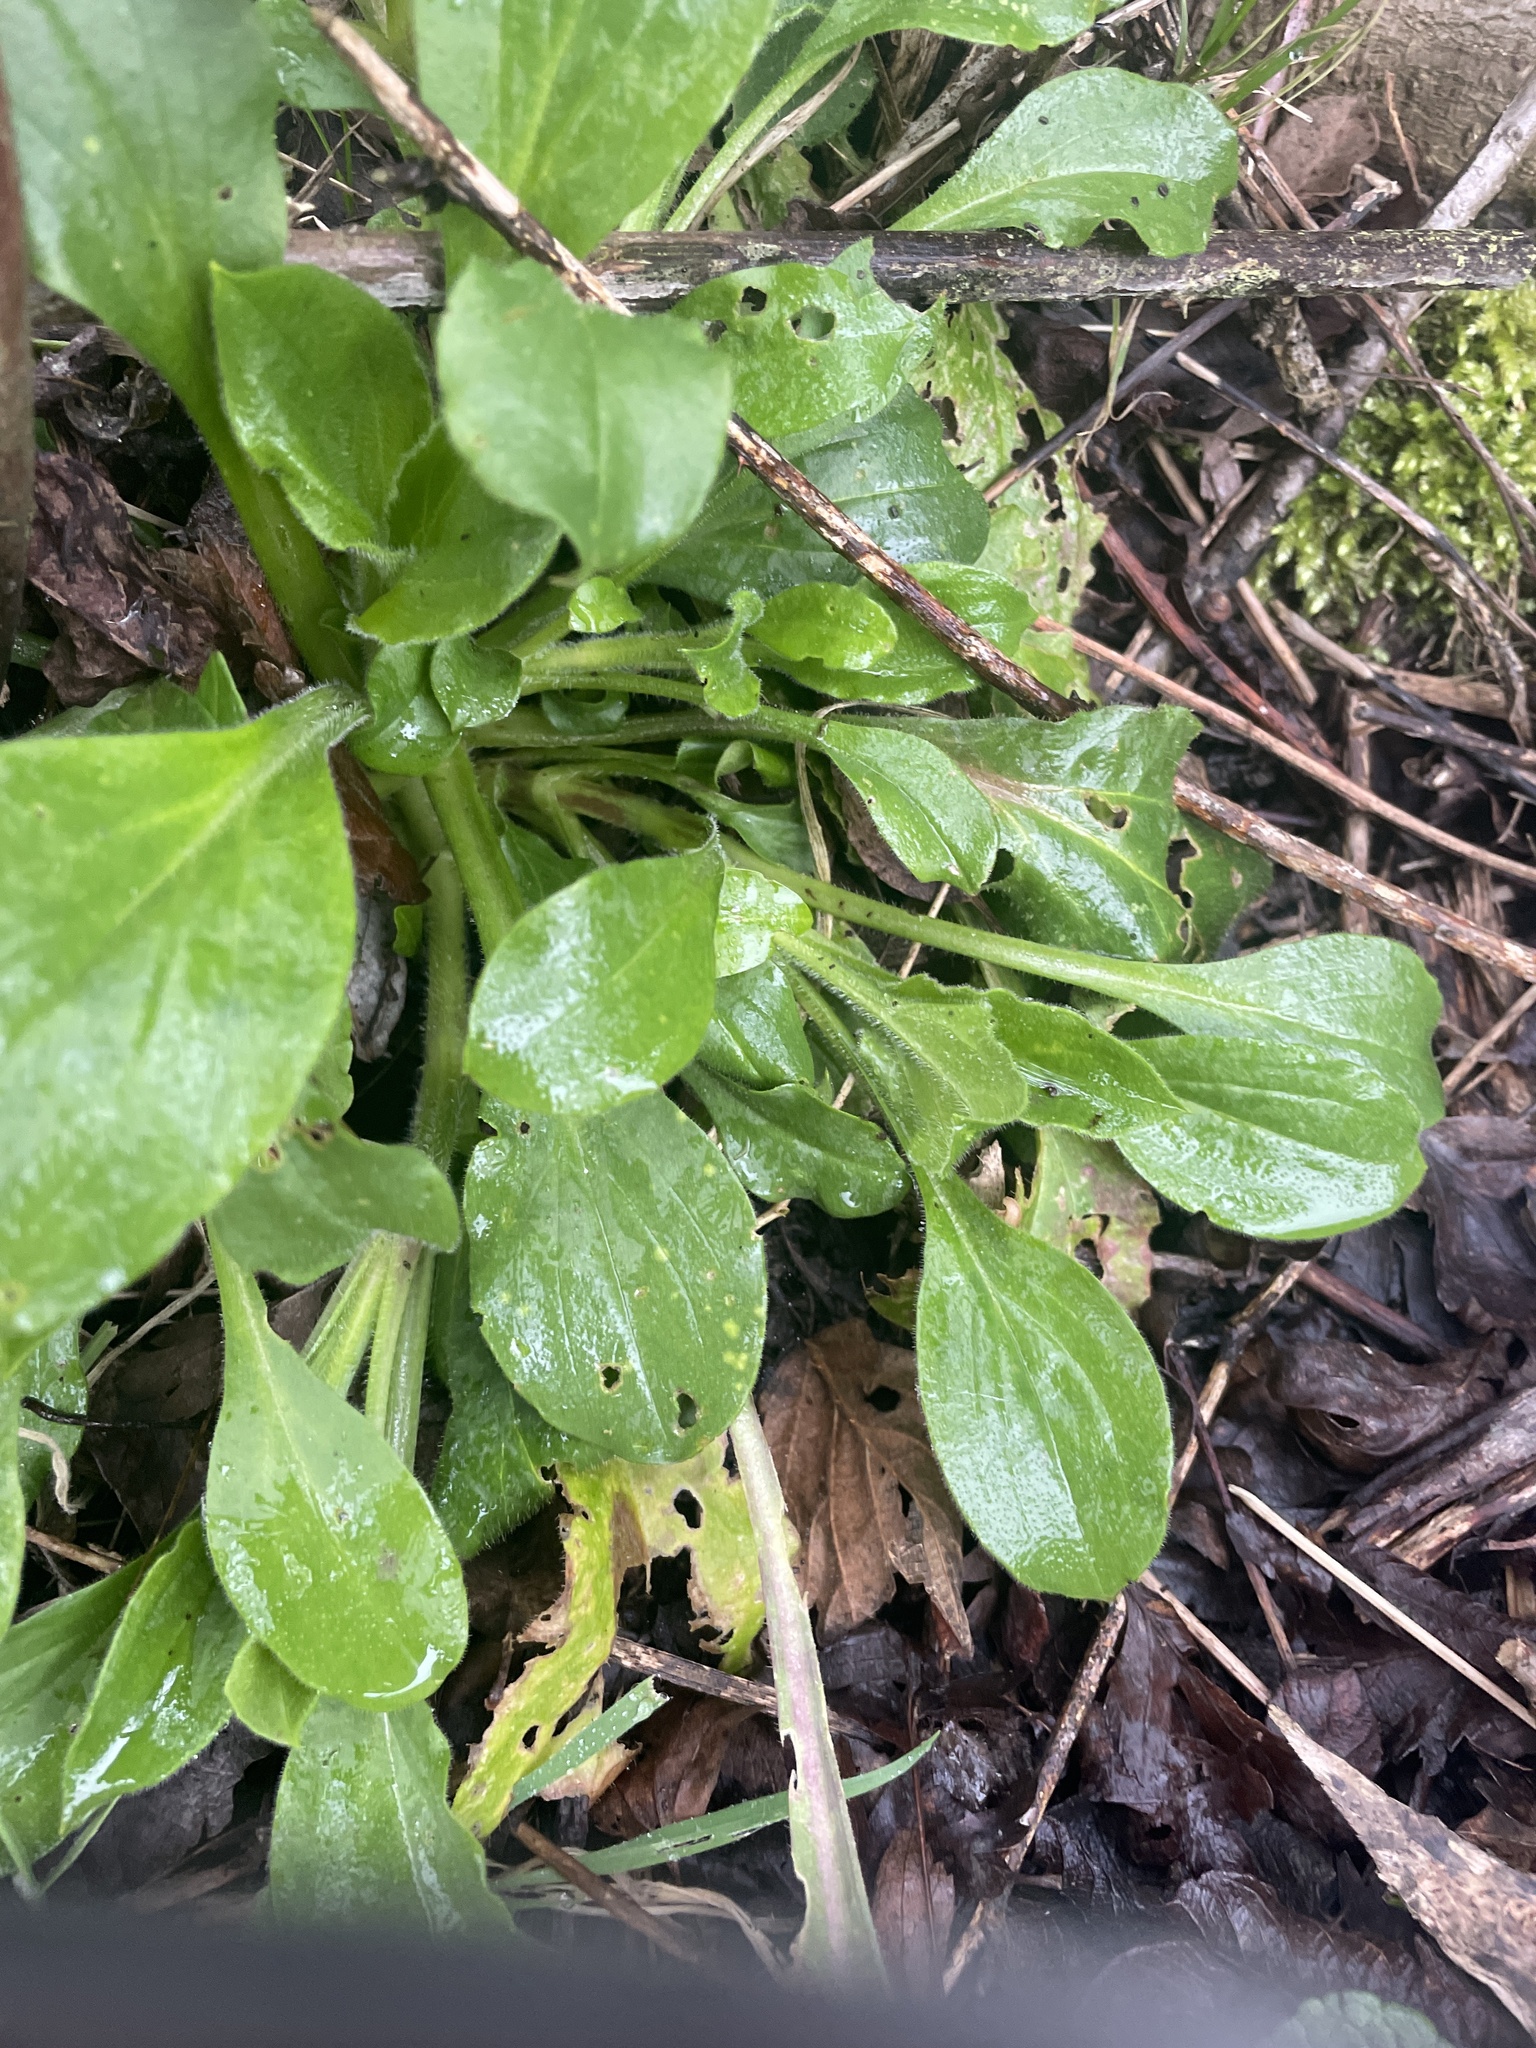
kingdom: Plantae
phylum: Tracheophyta
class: Magnoliopsida
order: Caryophyllales
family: Caryophyllaceae
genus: Silene
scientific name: Silene dioica
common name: Red campion
